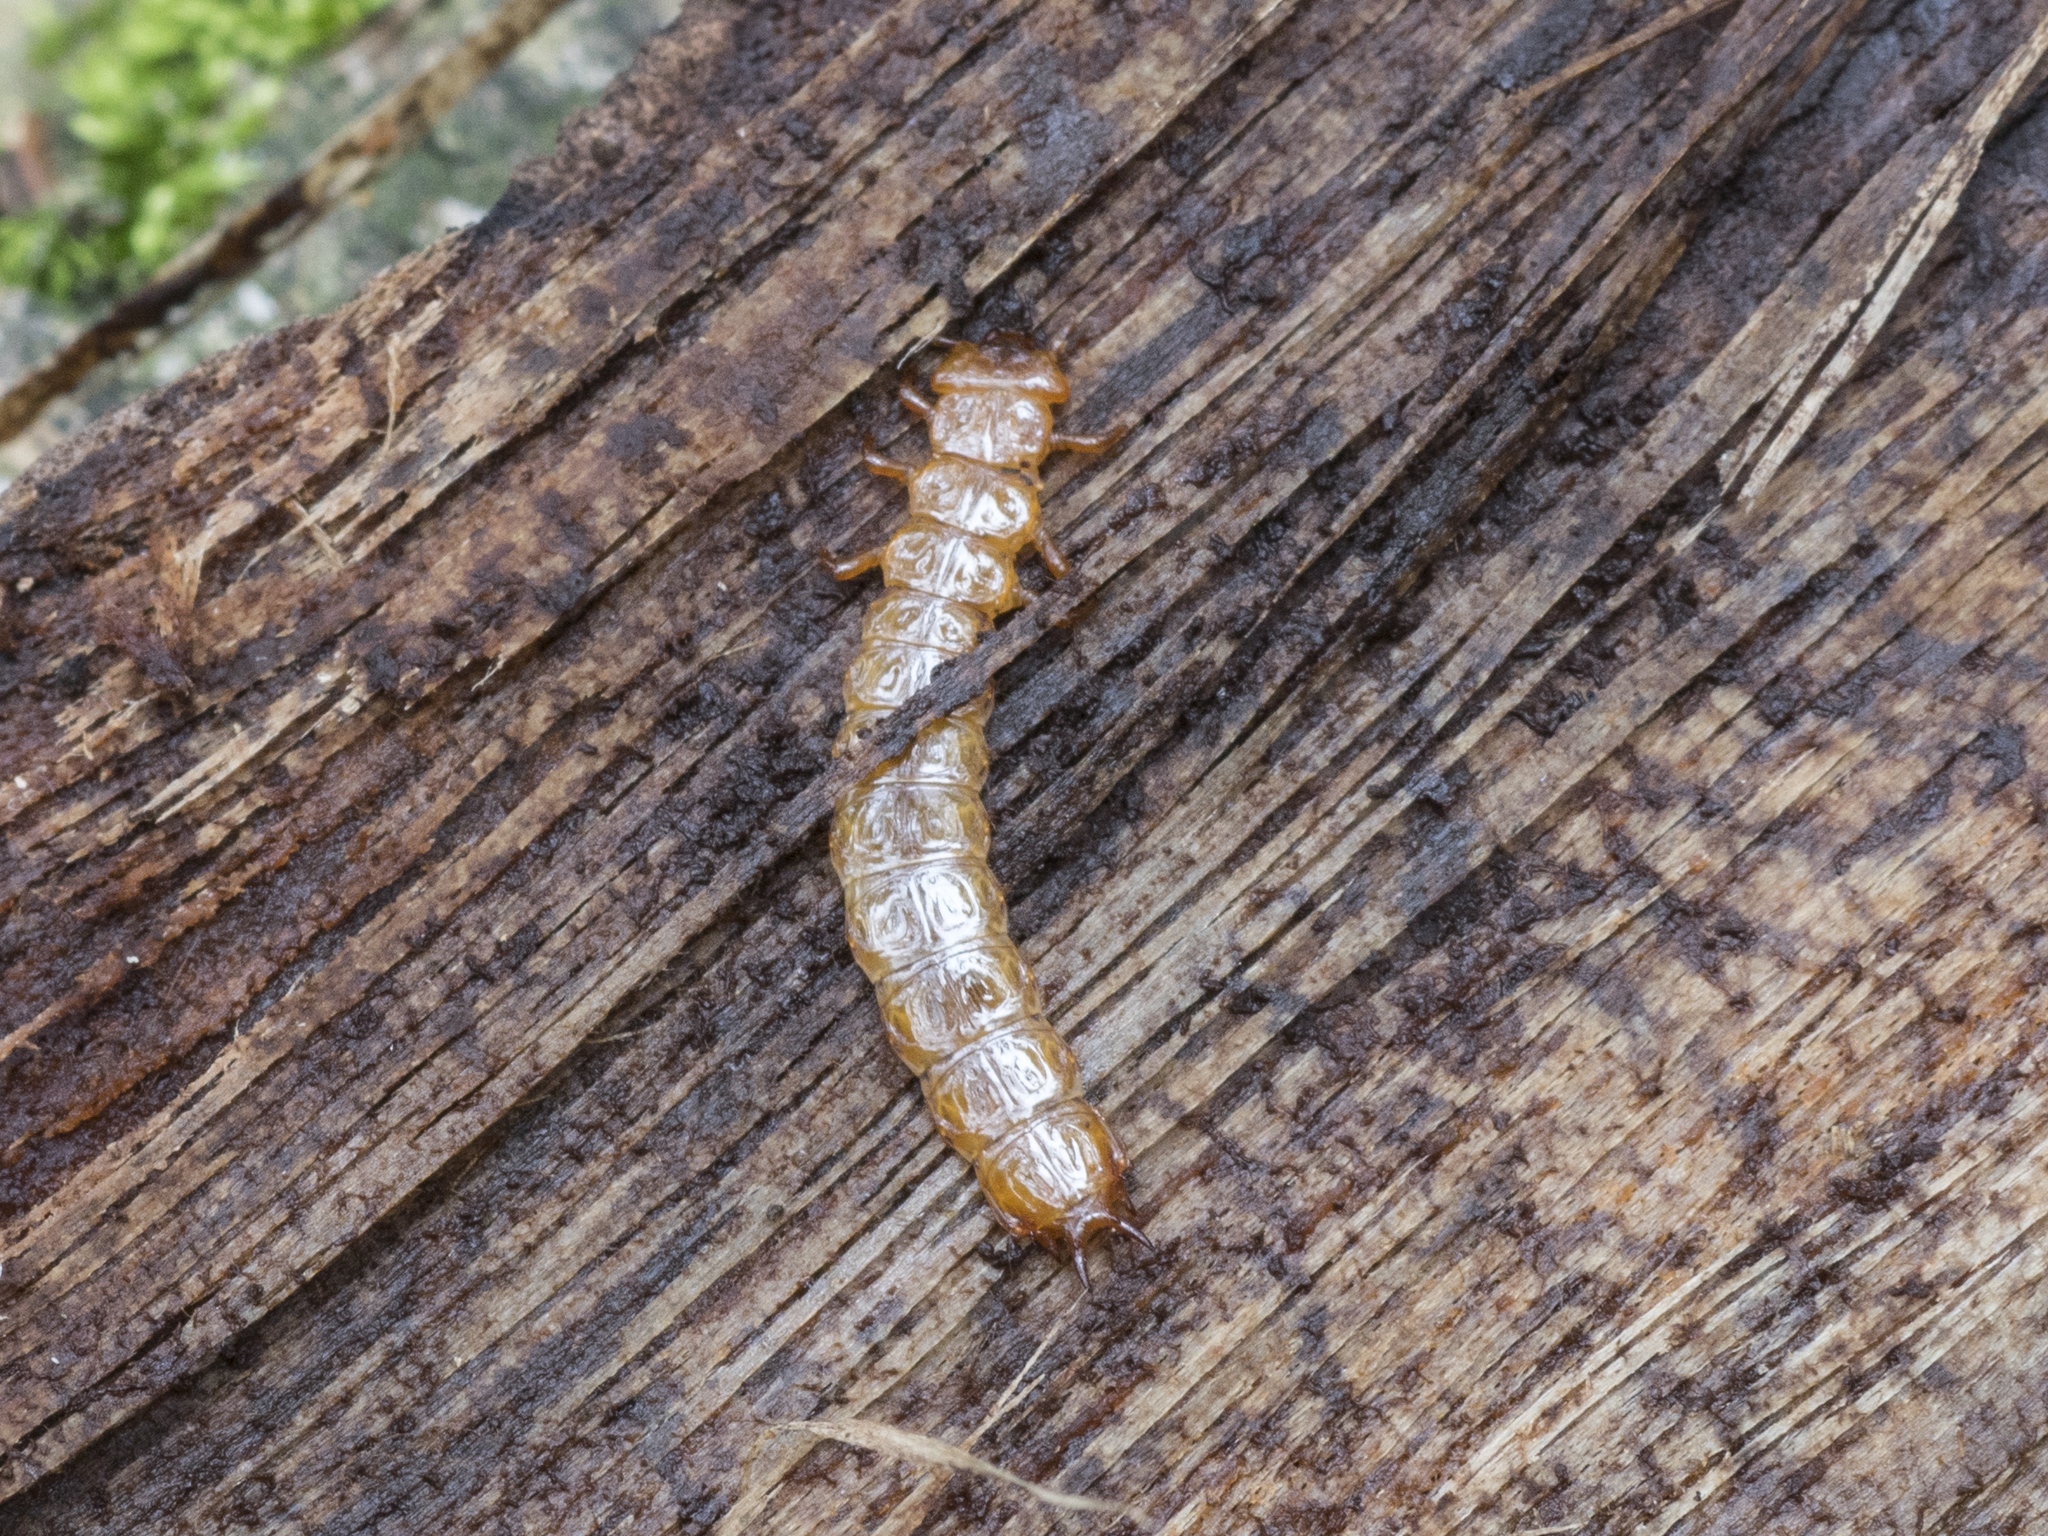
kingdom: Animalia
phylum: Arthropoda
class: Insecta
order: Coleoptera
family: Cucujidae
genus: Cucujus
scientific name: Cucujus cinnaberinus
